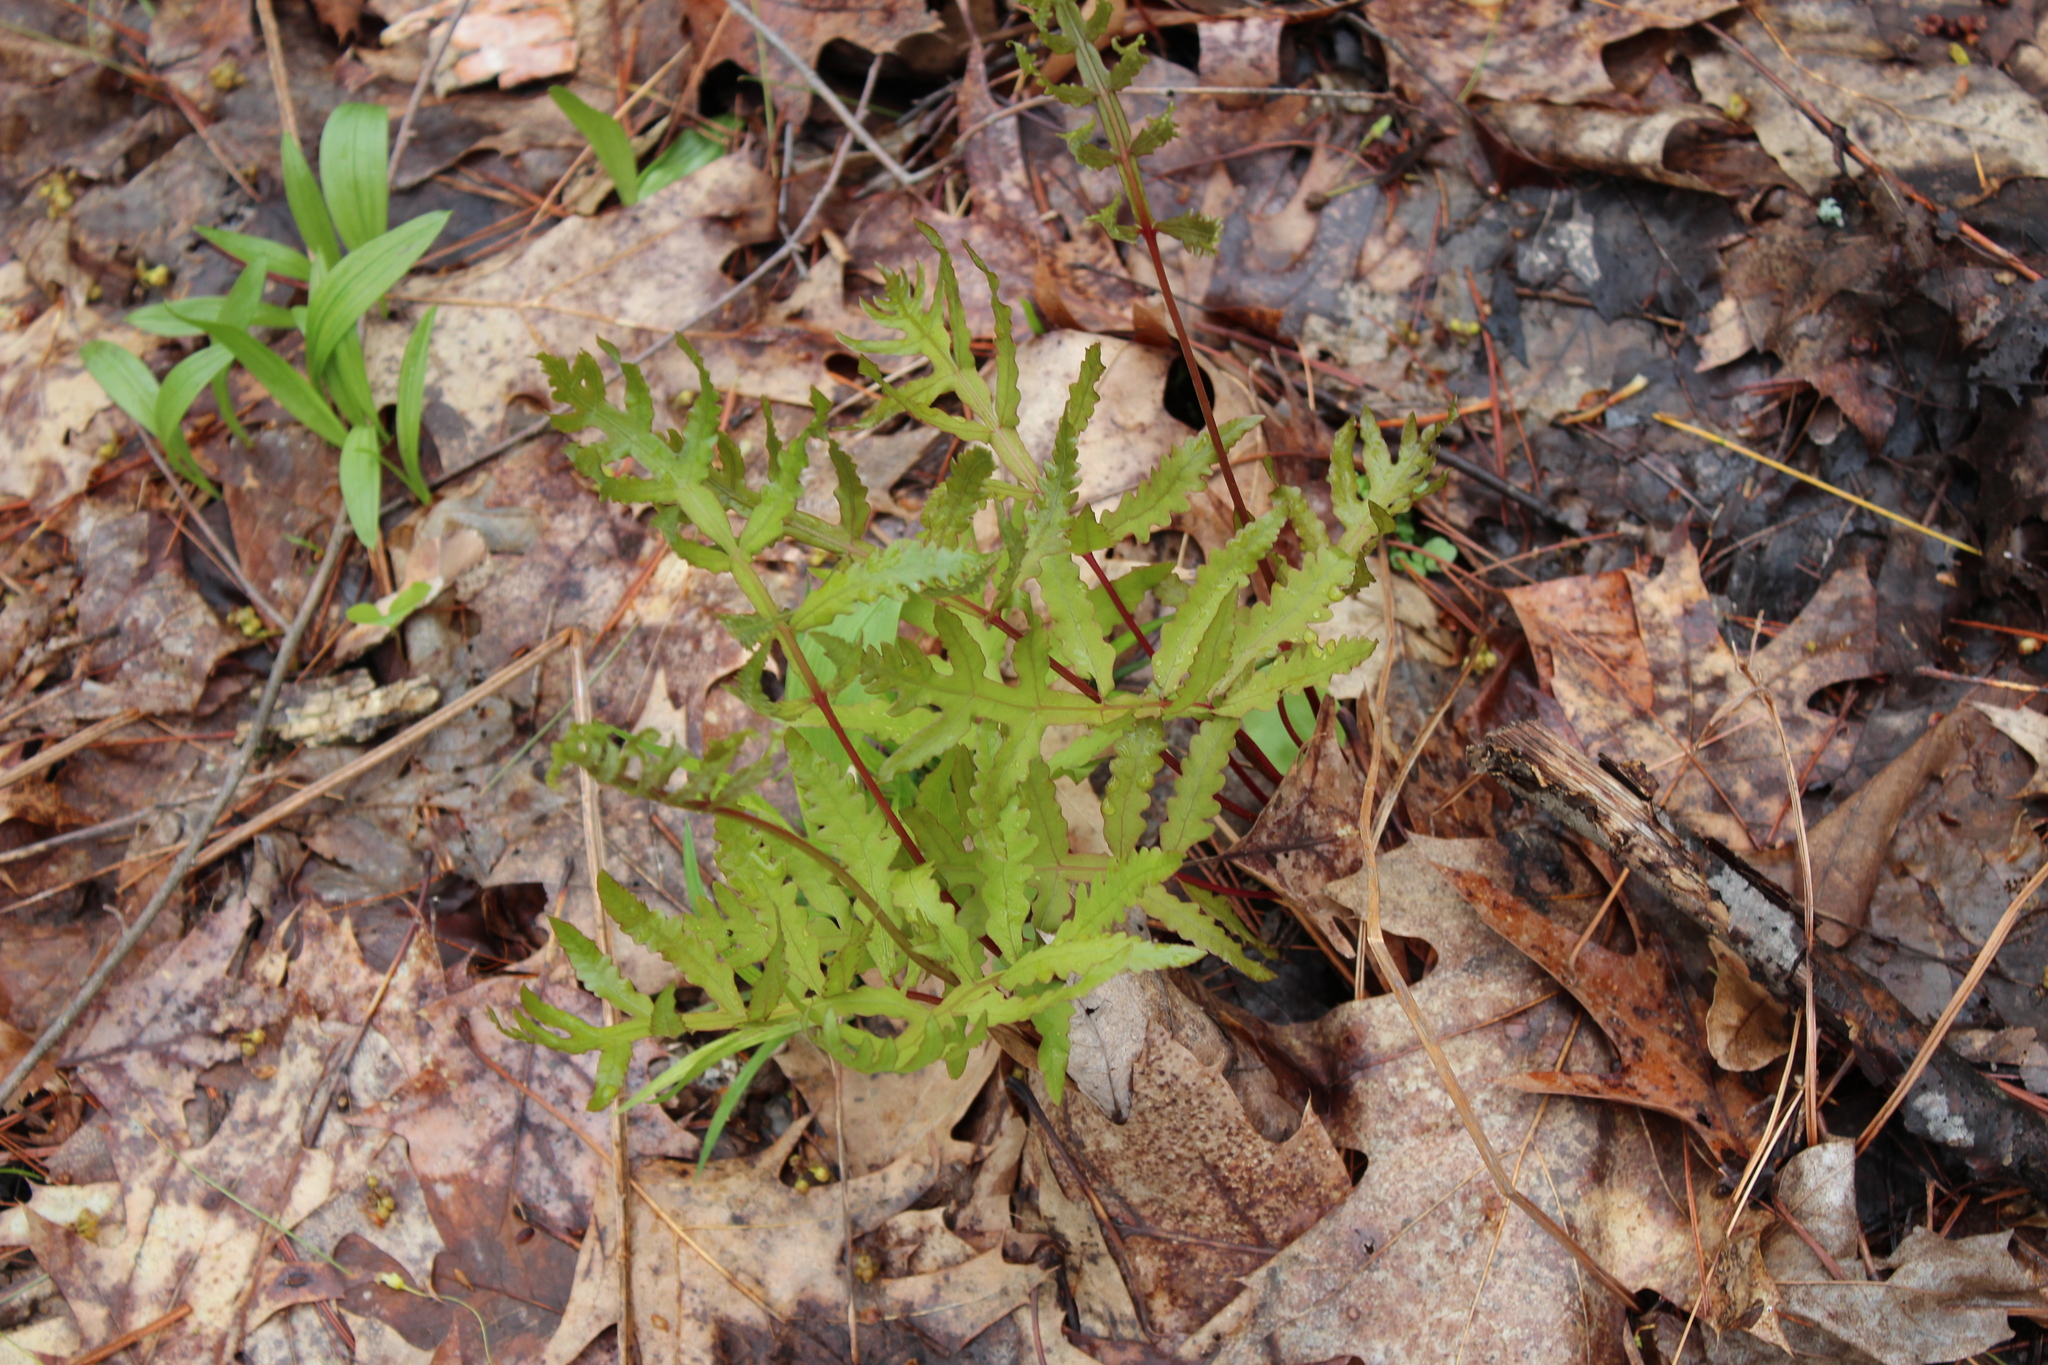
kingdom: Plantae
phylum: Tracheophyta
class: Polypodiopsida
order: Polypodiales
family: Onocleaceae
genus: Onoclea
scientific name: Onoclea sensibilis
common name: Sensitive fern
